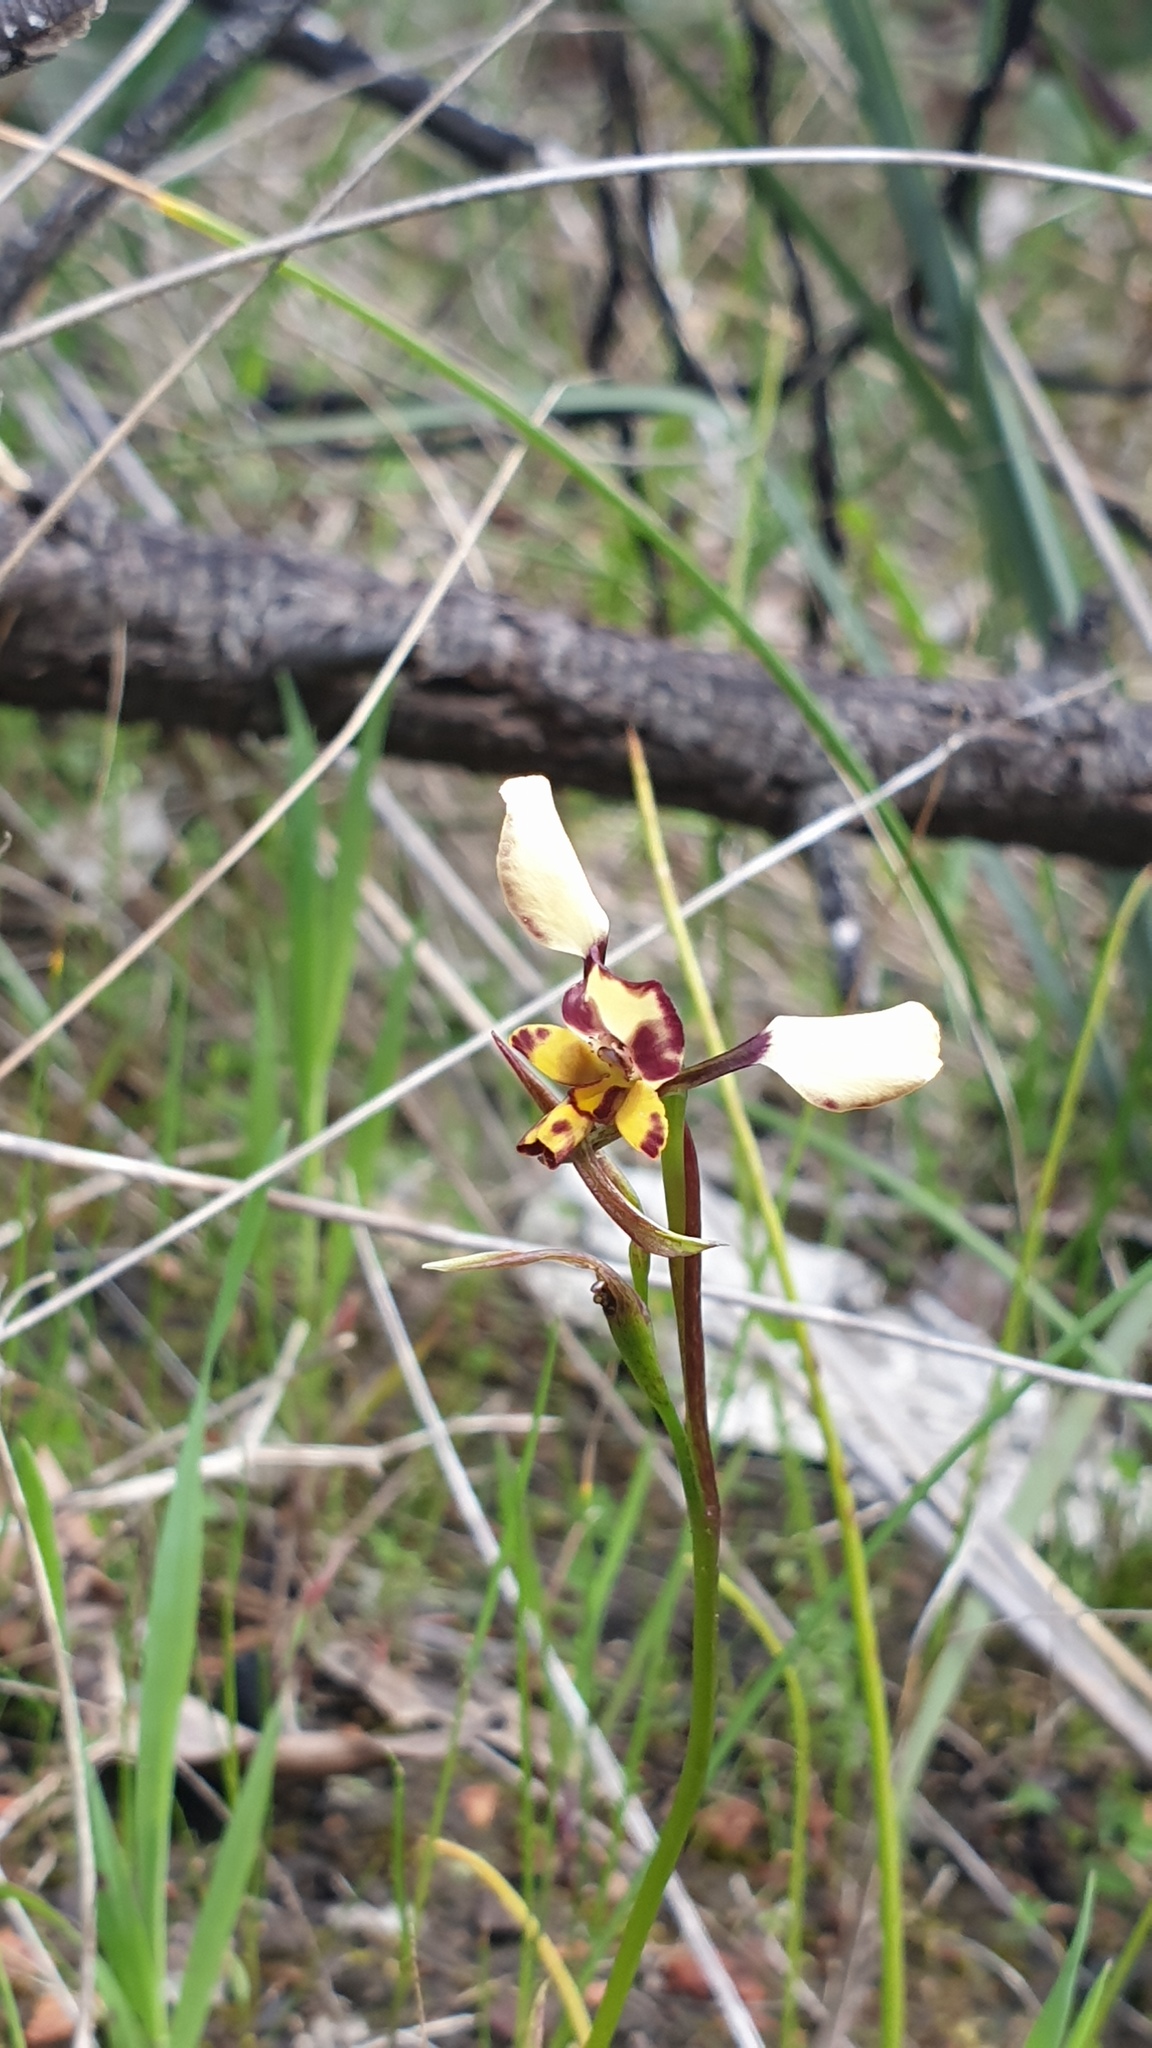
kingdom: Plantae
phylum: Tracheophyta
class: Liliopsida
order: Asparagales
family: Orchidaceae
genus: Diuris
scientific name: Diuris pardina
